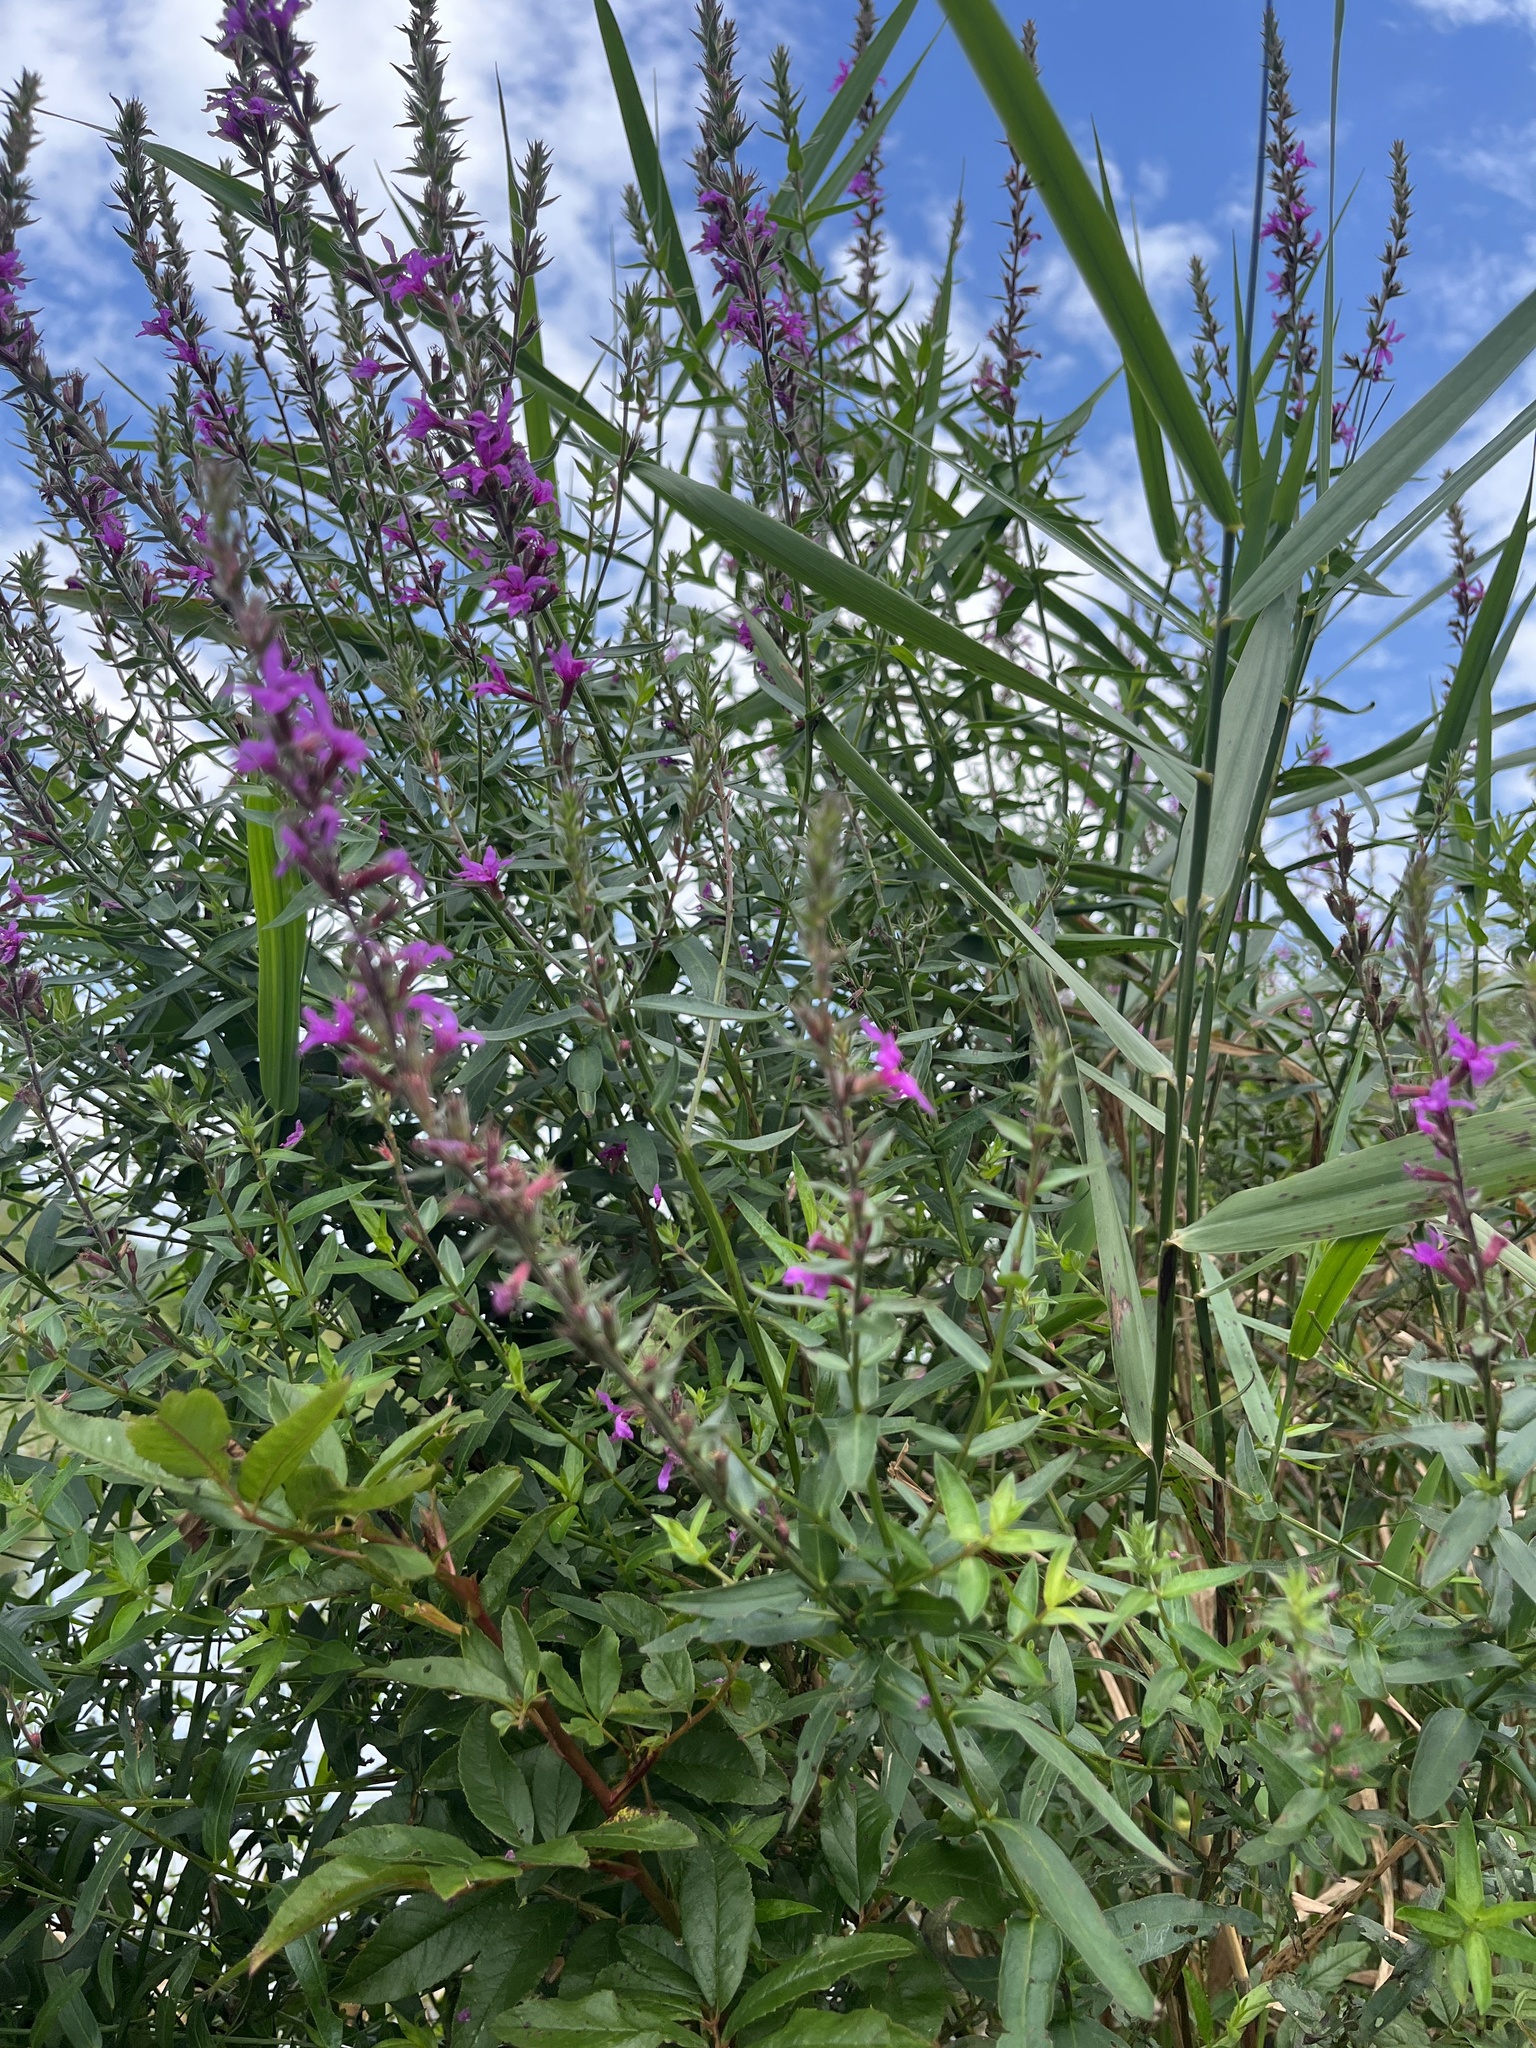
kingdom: Plantae
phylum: Tracheophyta
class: Magnoliopsida
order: Myrtales
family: Lythraceae
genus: Lythrum
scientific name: Lythrum salicaria
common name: Purple loosestrife
